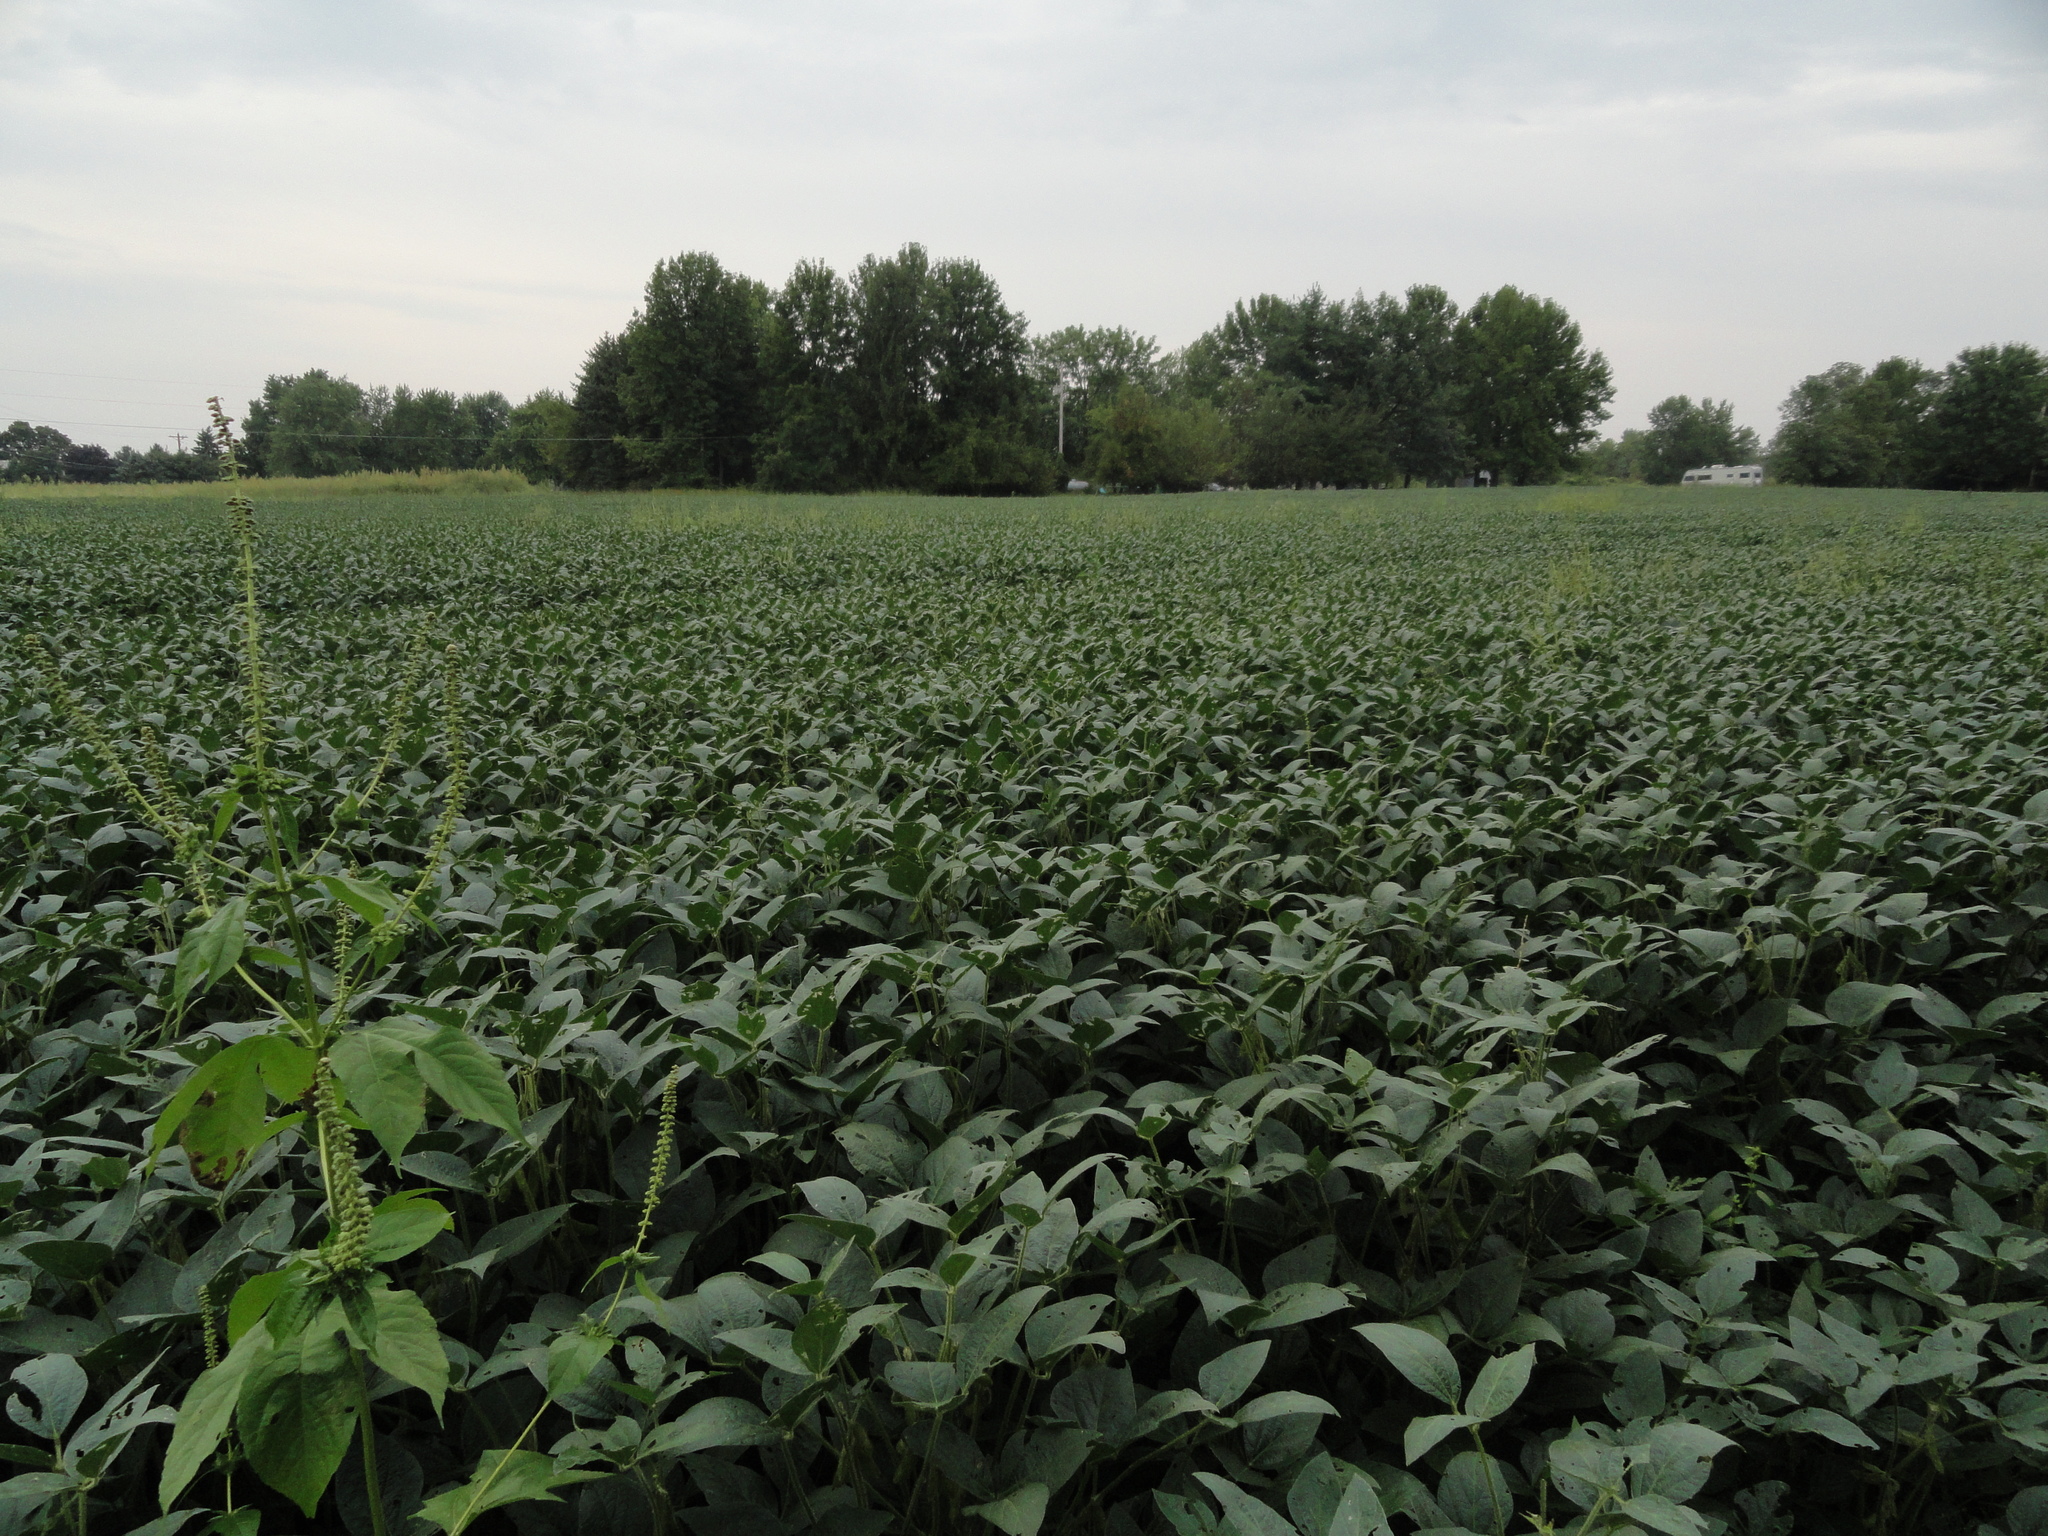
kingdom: Plantae
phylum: Tracheophyta
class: Magnoliopsida
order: Asterales
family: Asteraceae
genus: Ambrosia
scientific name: Ambrosia trifida
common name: Giant ragweed
